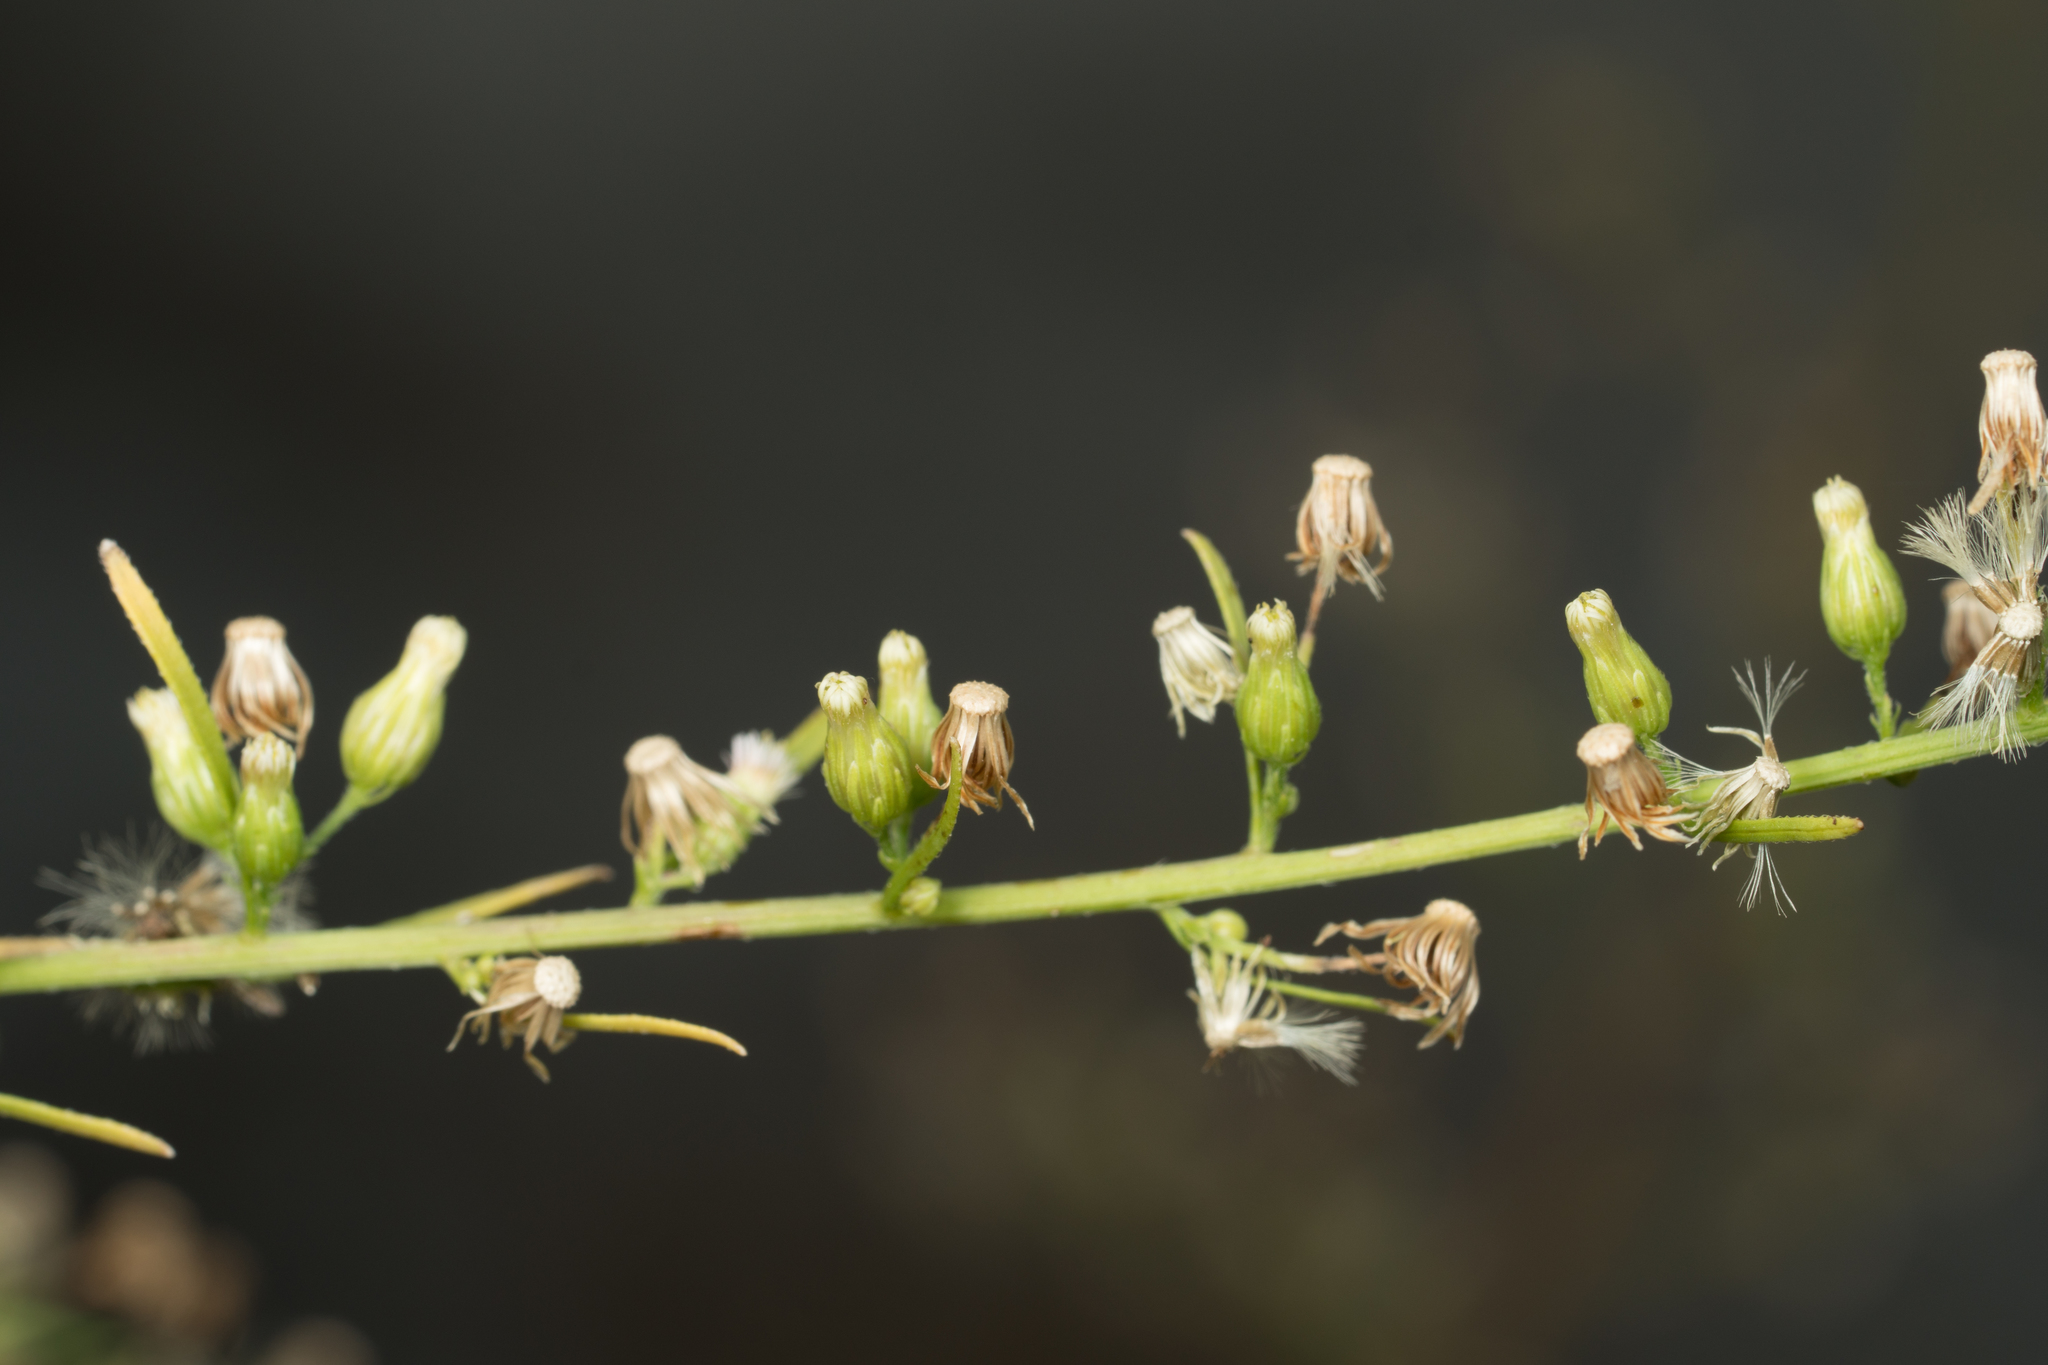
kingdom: Plantae
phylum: Tracheophyta
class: Magnoliopsida
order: Asterales
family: Asteraceae
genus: Erigeron
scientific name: Erigeron canadensis
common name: Canadian fleabane
